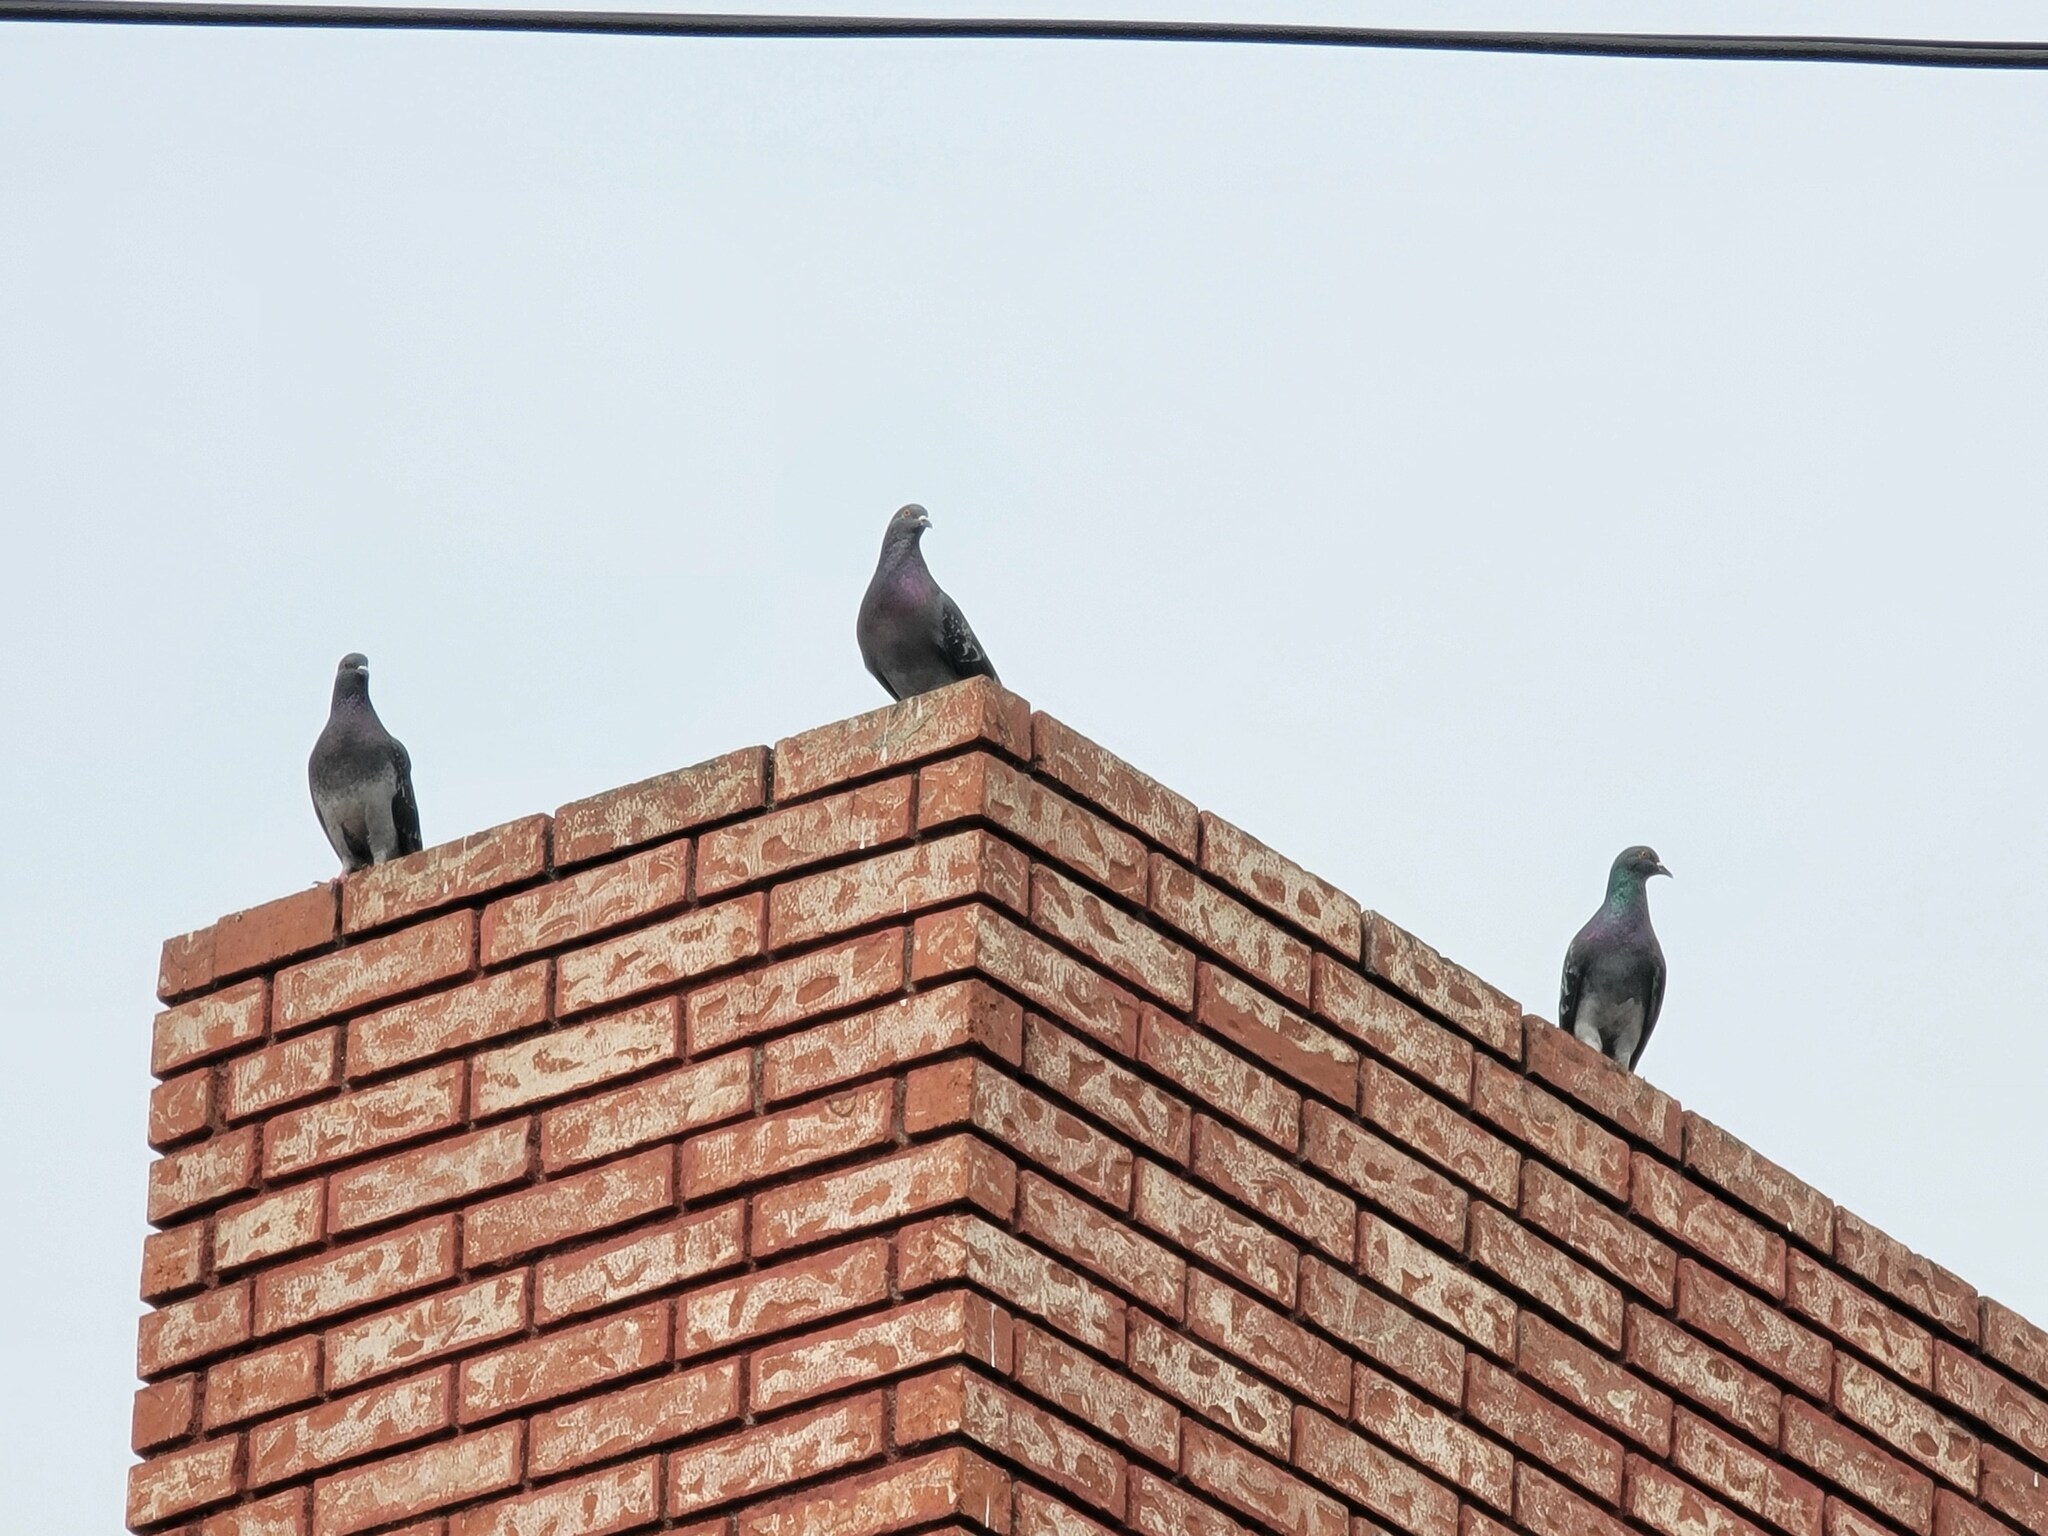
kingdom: Animalia
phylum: Chordata
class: Aves
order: Columbiformes
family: Columbidae
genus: Columba
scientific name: Columba livia
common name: Rock pigeon
